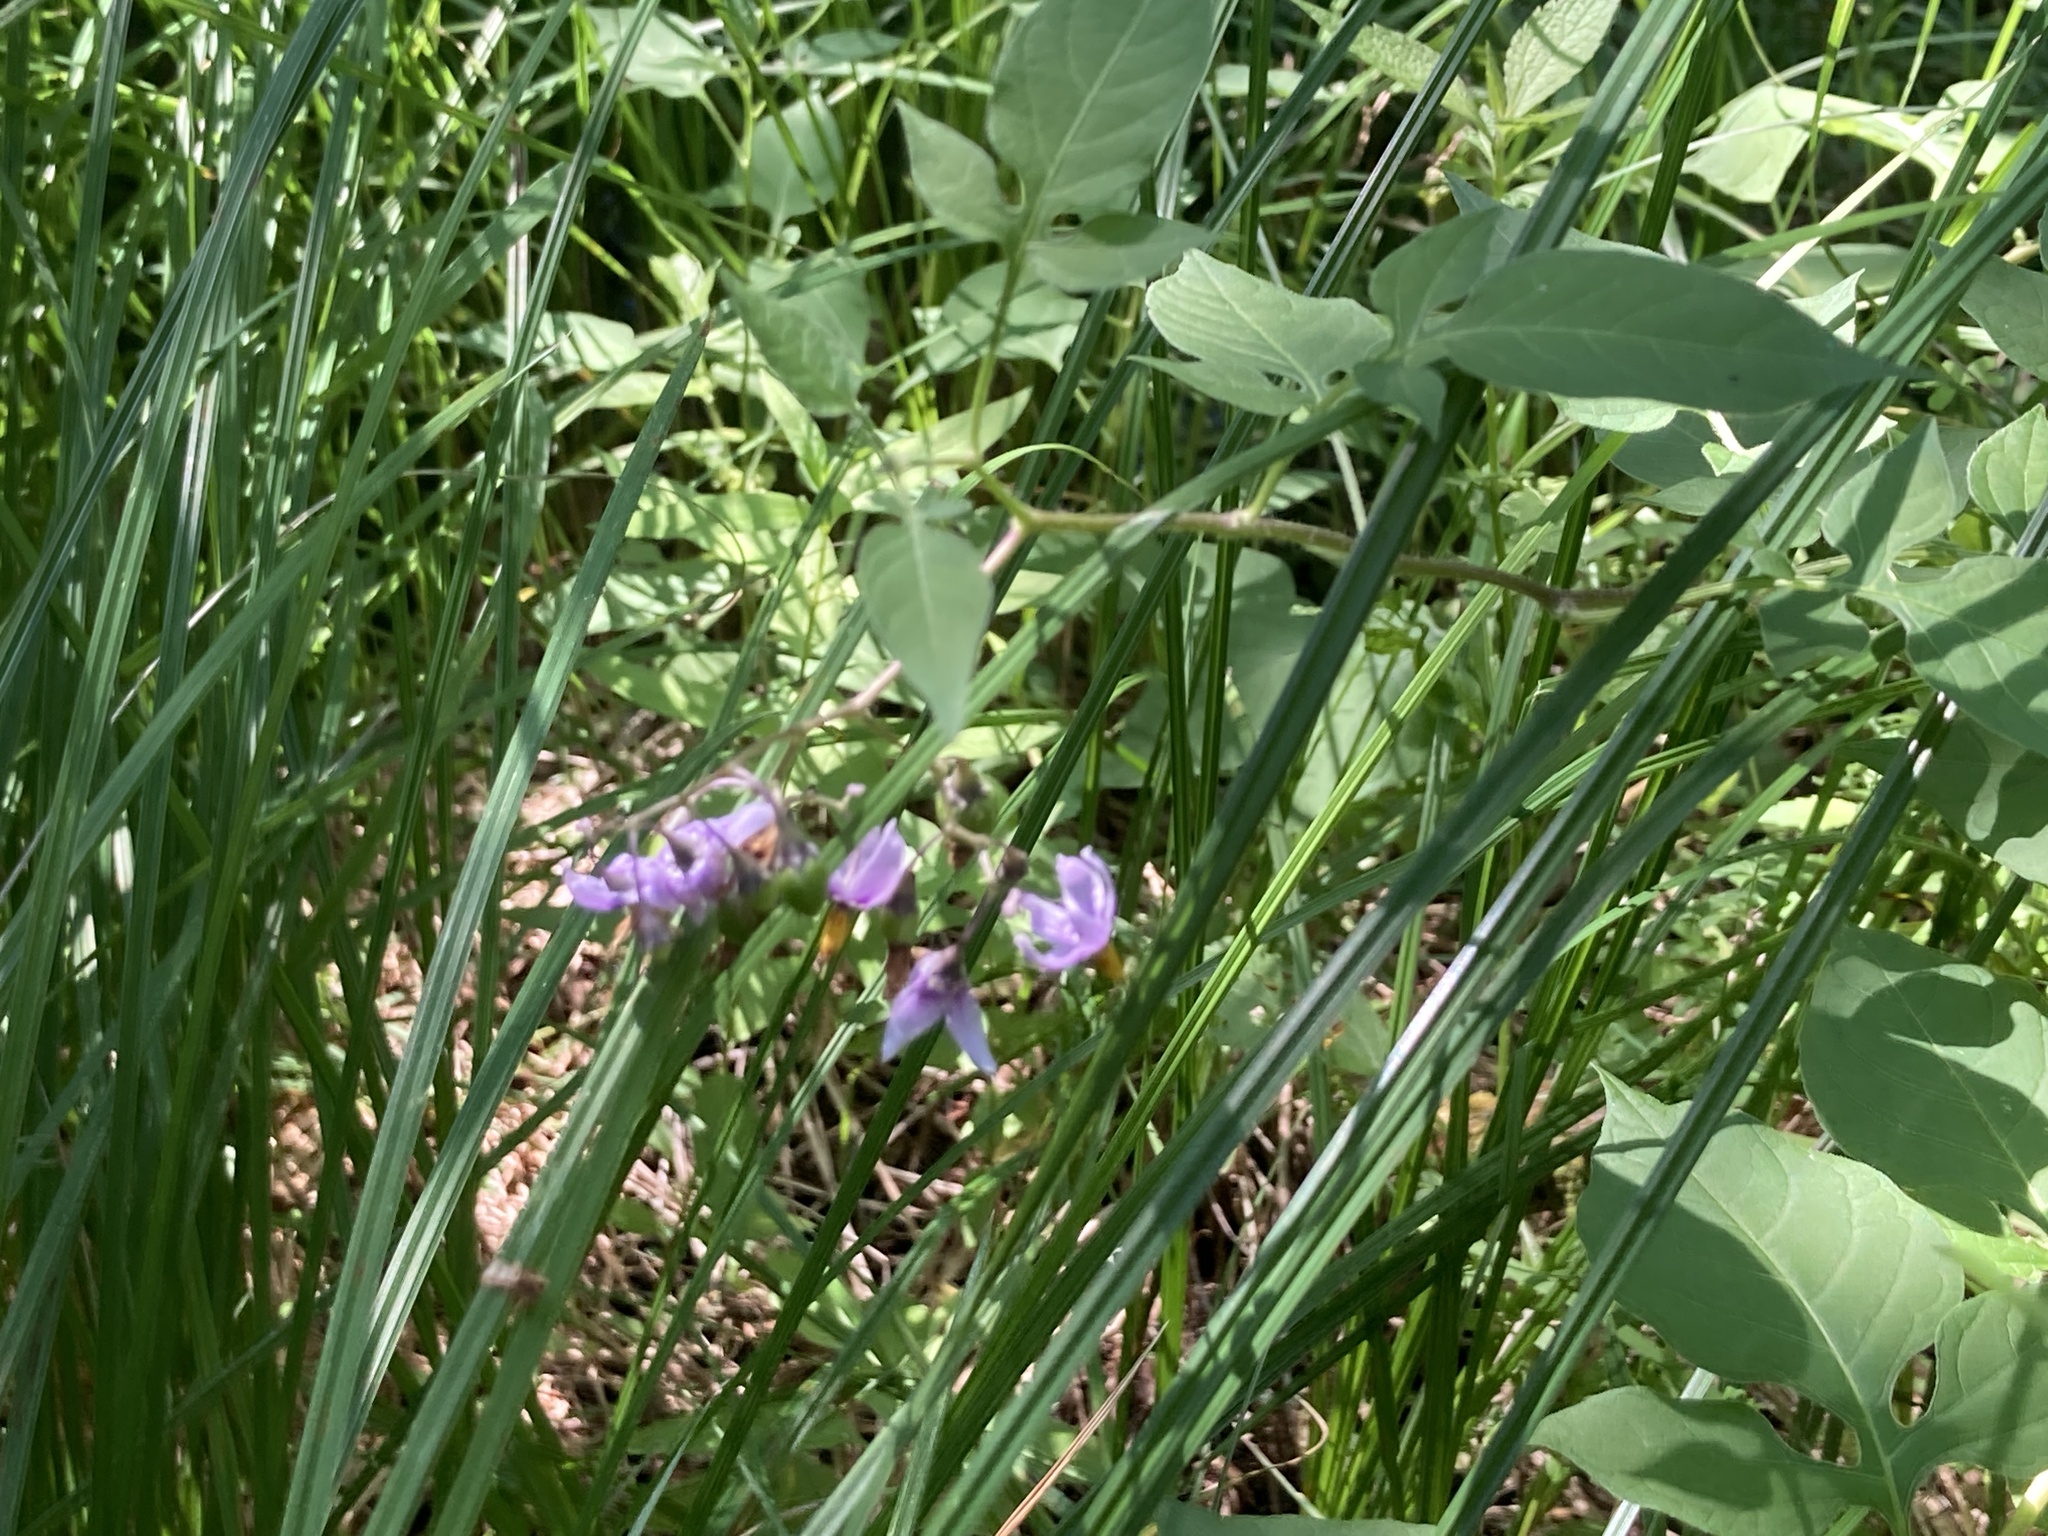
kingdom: Plantae
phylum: Tracheophyta
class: Magnoliopsida
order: Solanales
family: Solanaceae
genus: Solanum
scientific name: Solanum dulcamara
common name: Climbing nightshade
